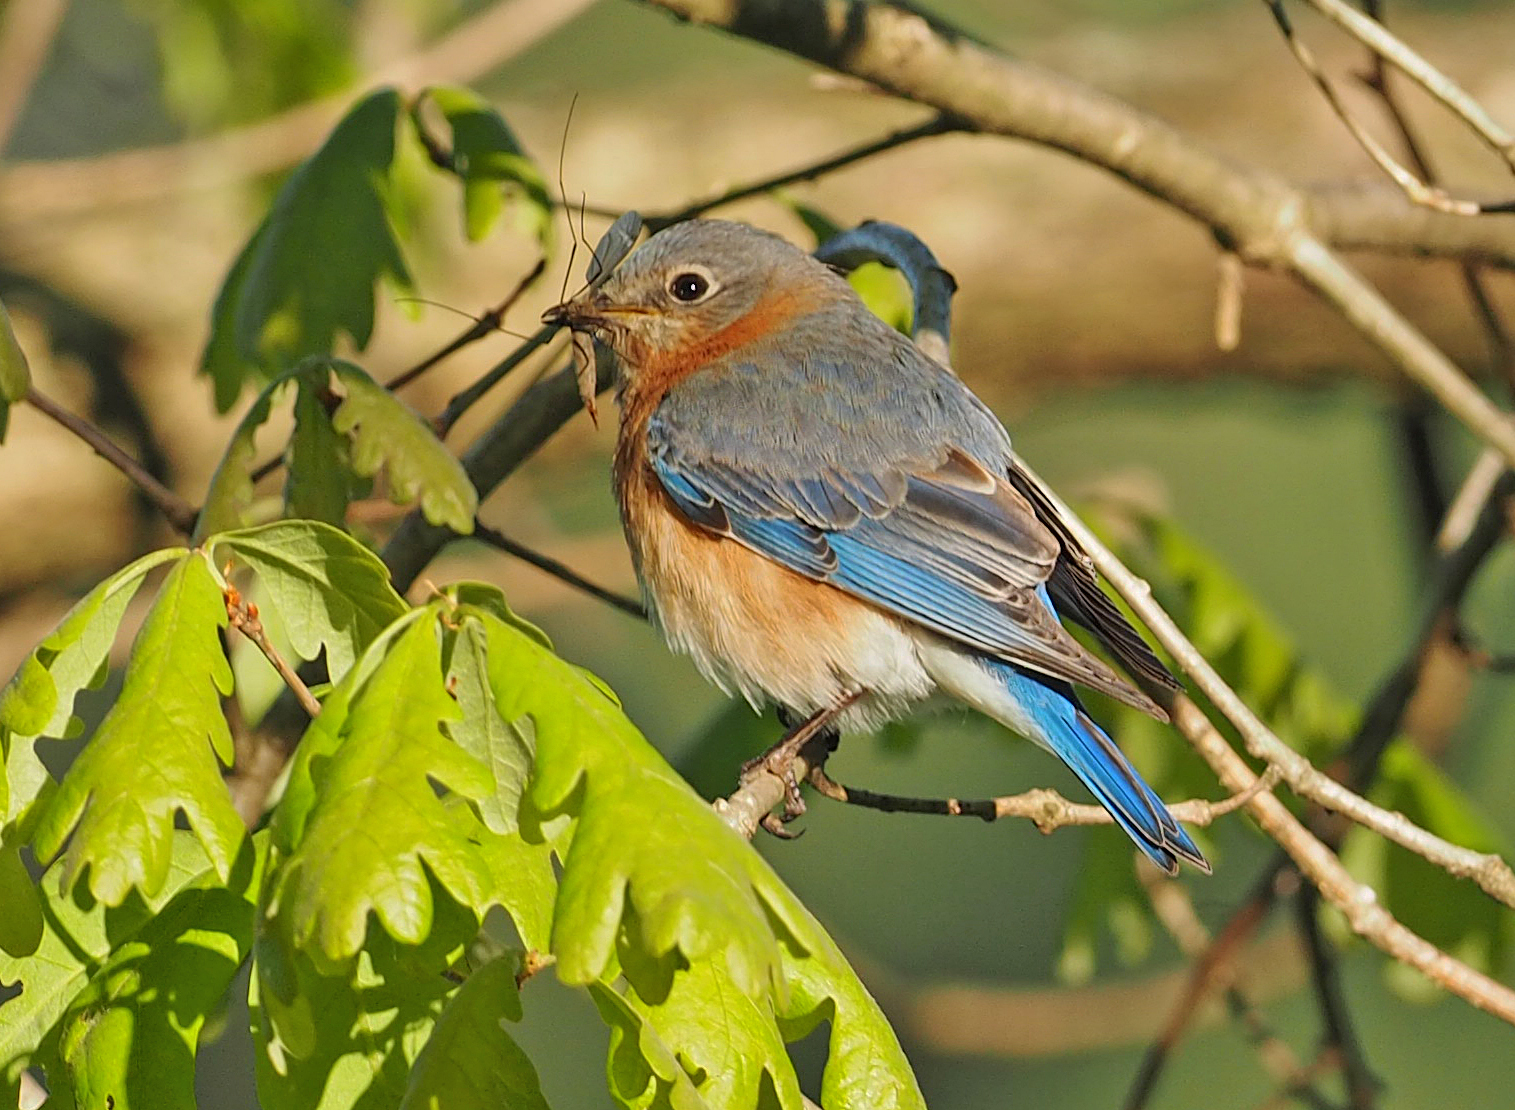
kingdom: Animalia
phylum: Chordata
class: Aves
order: Passeriformes
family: Turdidae
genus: Sialia
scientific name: Sialia sialis
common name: Eastern bluebird
